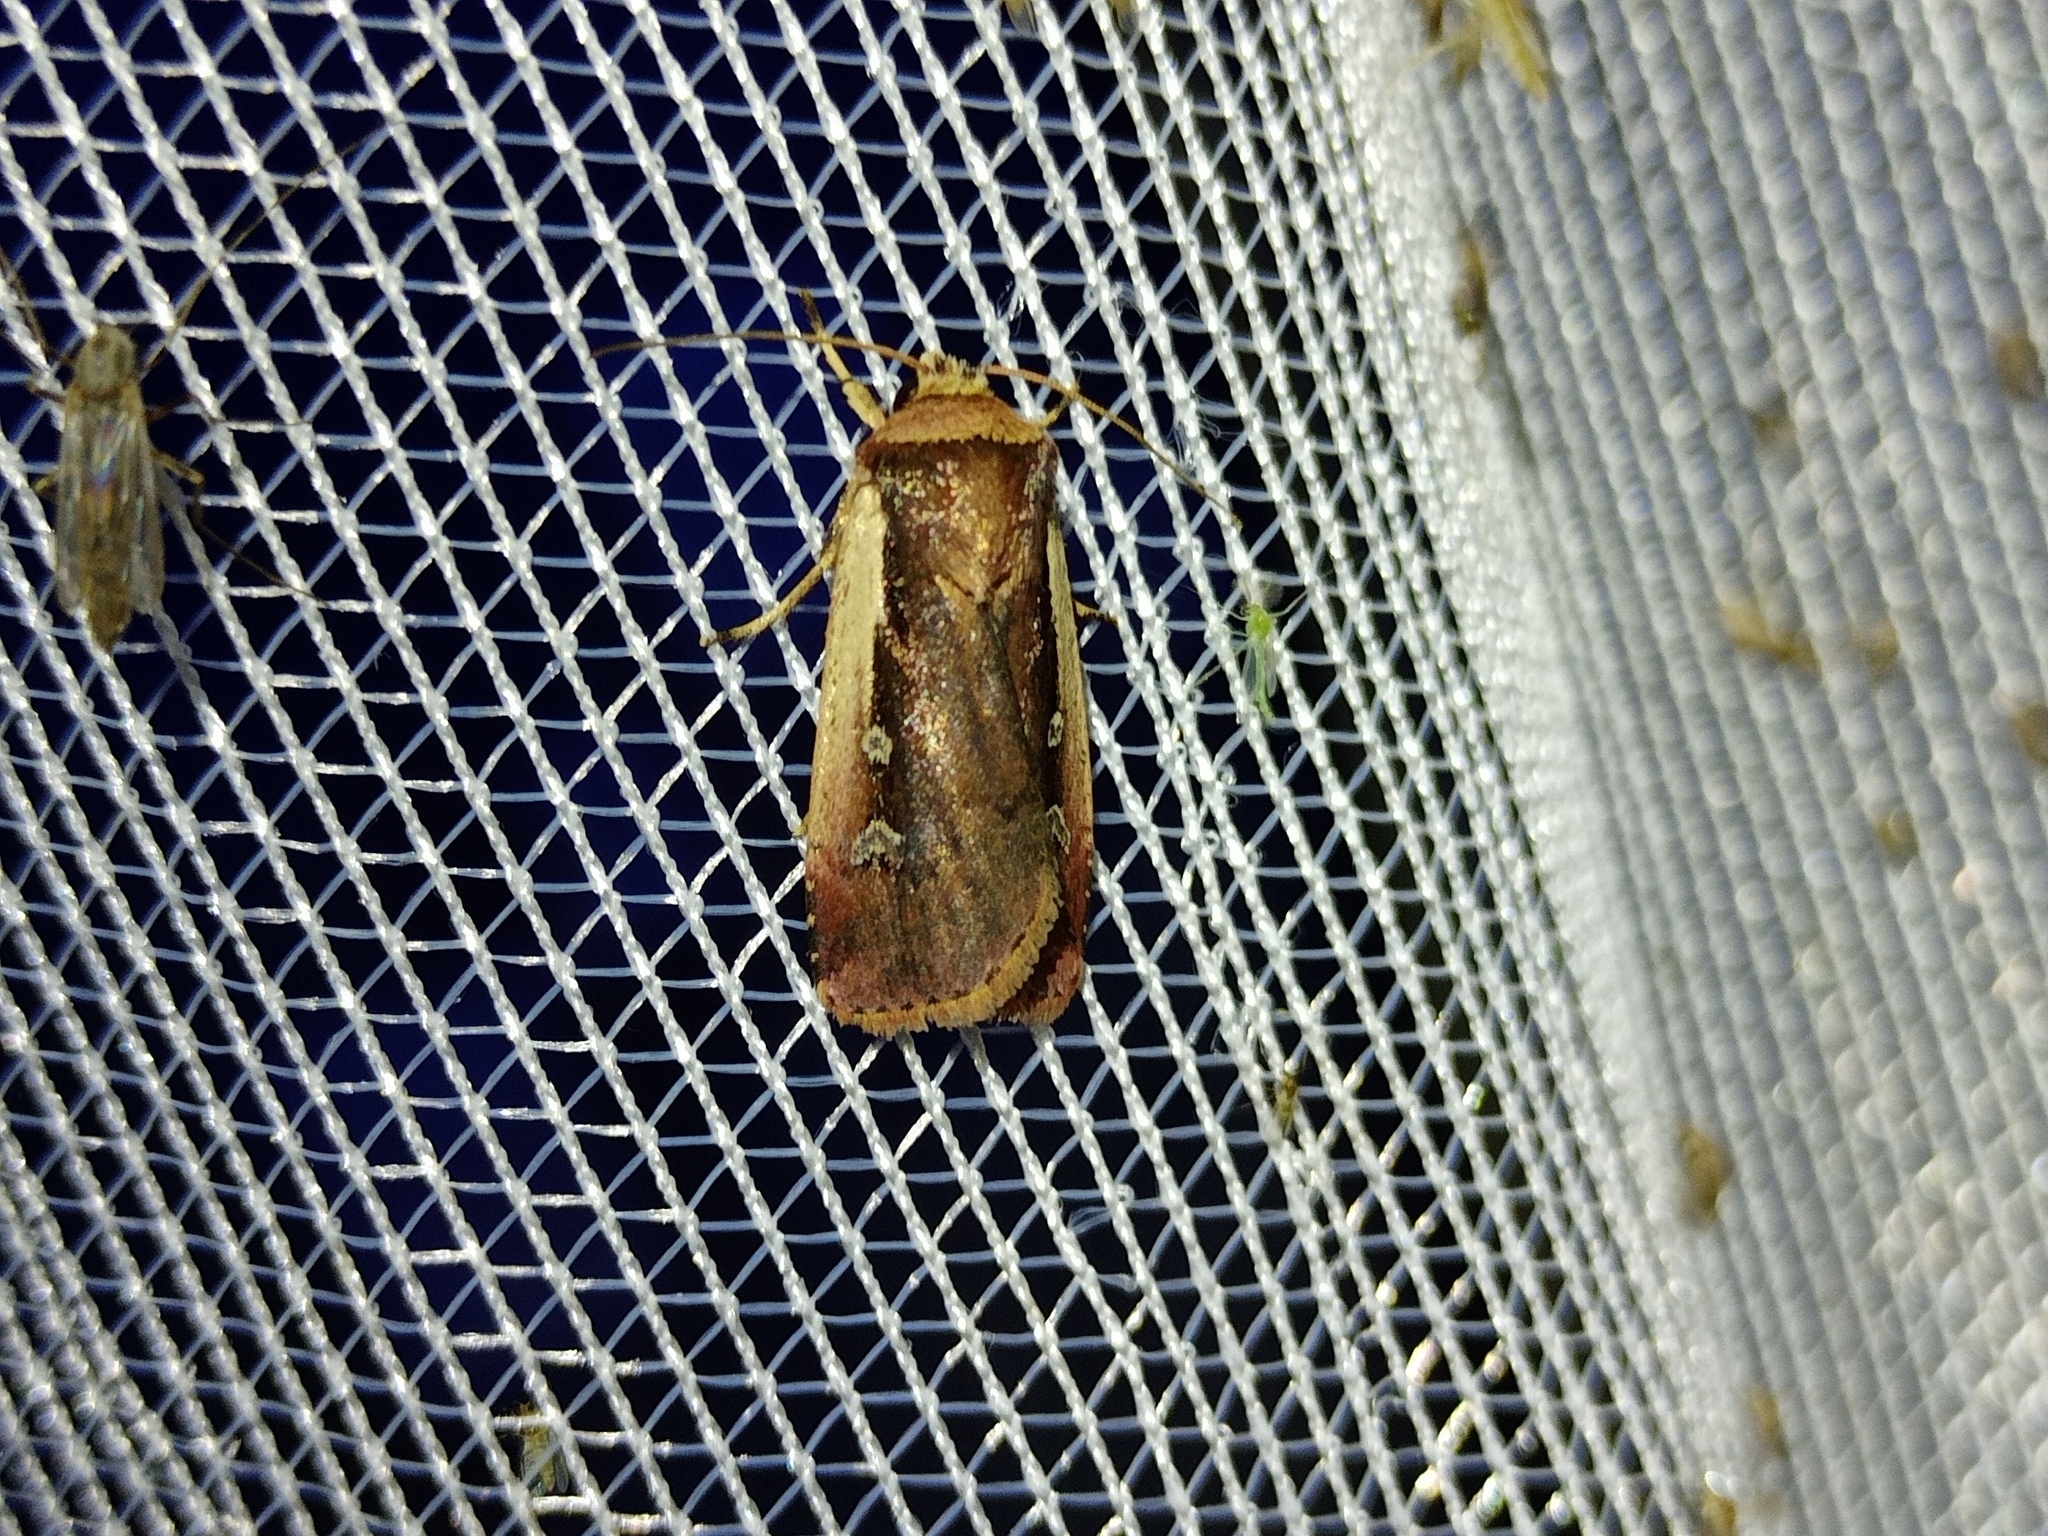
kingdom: Animalia
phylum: Arthropoda
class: Insecta
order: Lepidoptera
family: Noctuidae
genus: Ochropleura
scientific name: Ochropleura plecta
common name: Flame shoulder
